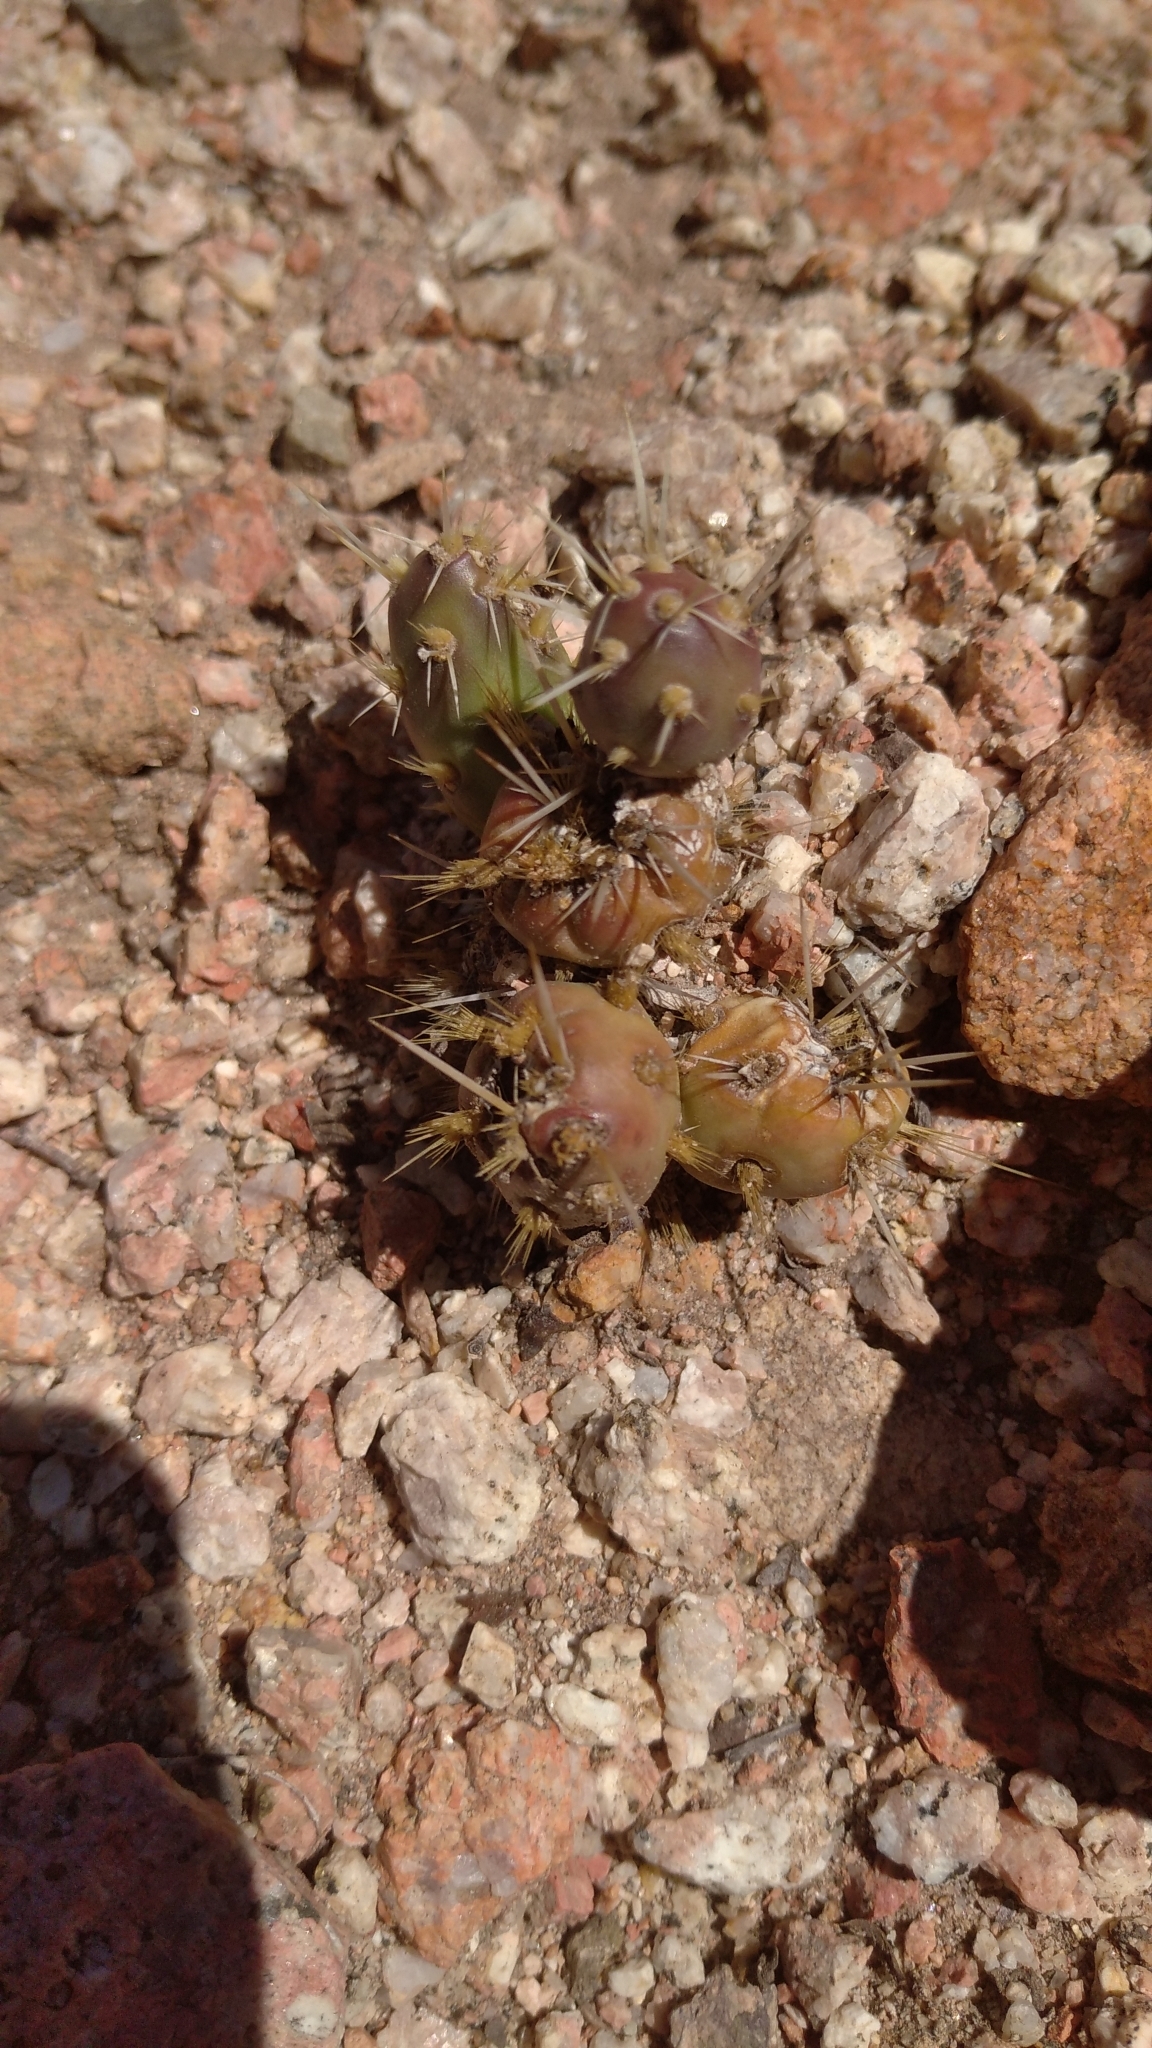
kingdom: Plantae
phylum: Tracheophyta
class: Magnoliopsida
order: Caryophyllales
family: Cactaceae
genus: Maihueniopsis
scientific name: Maihueniopsis ovata
